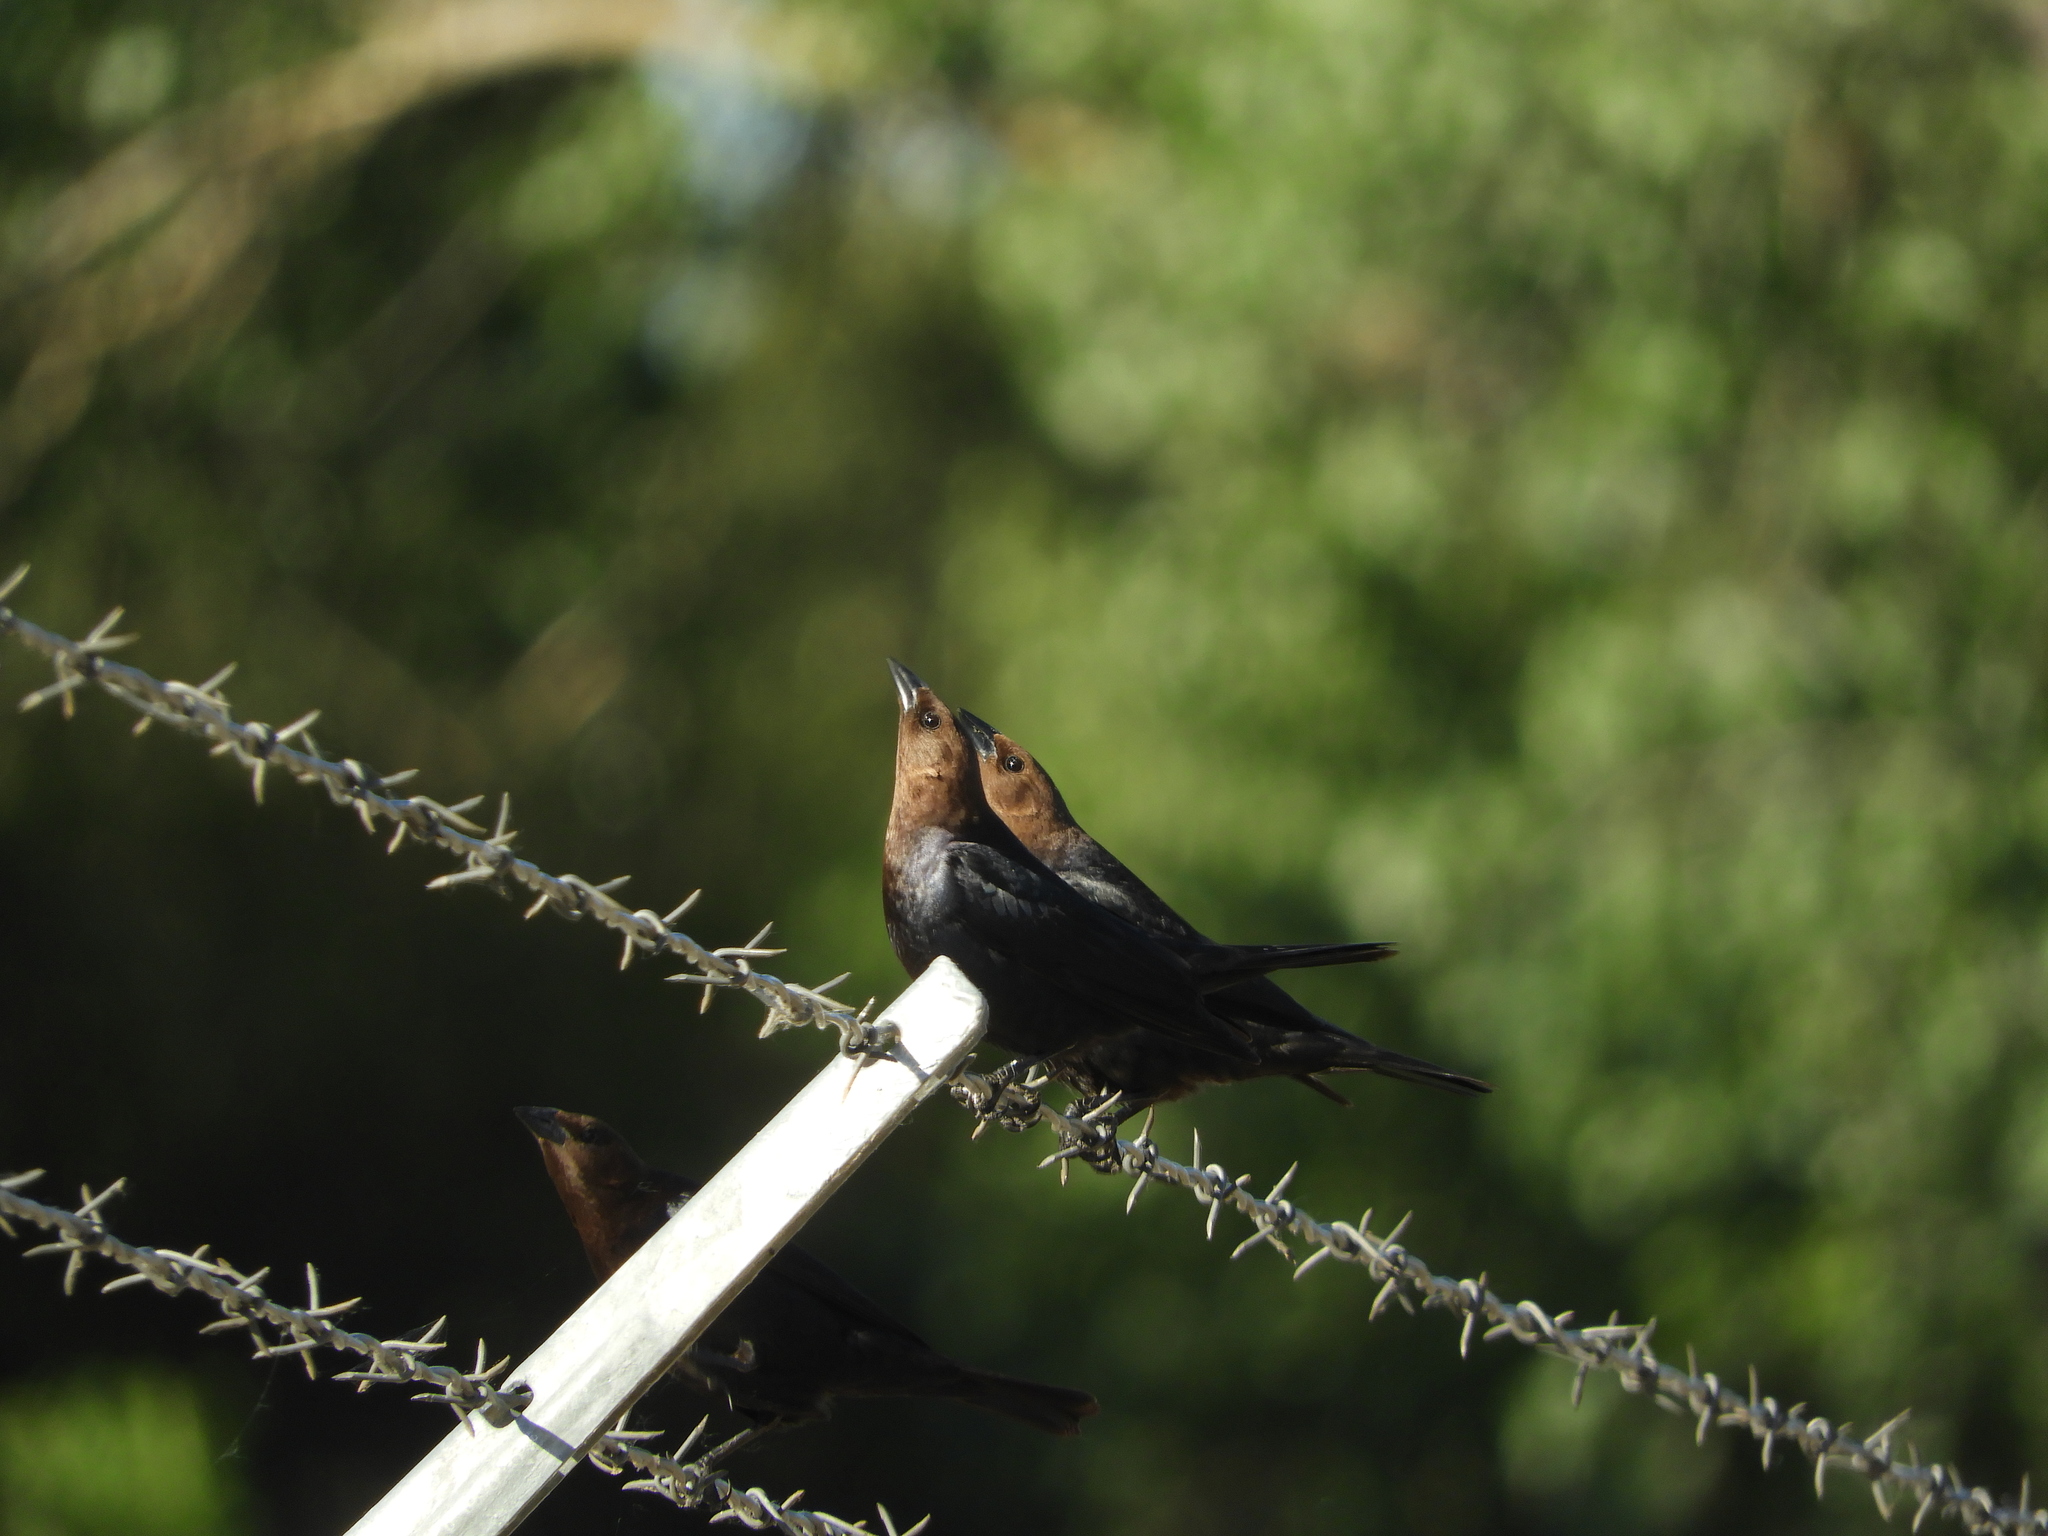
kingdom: Animalia
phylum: Chordata
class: Aves
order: Passeriformes
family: Icteridae
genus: Molothrus
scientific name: Molothrus ater
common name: Brown-headed cowbird
